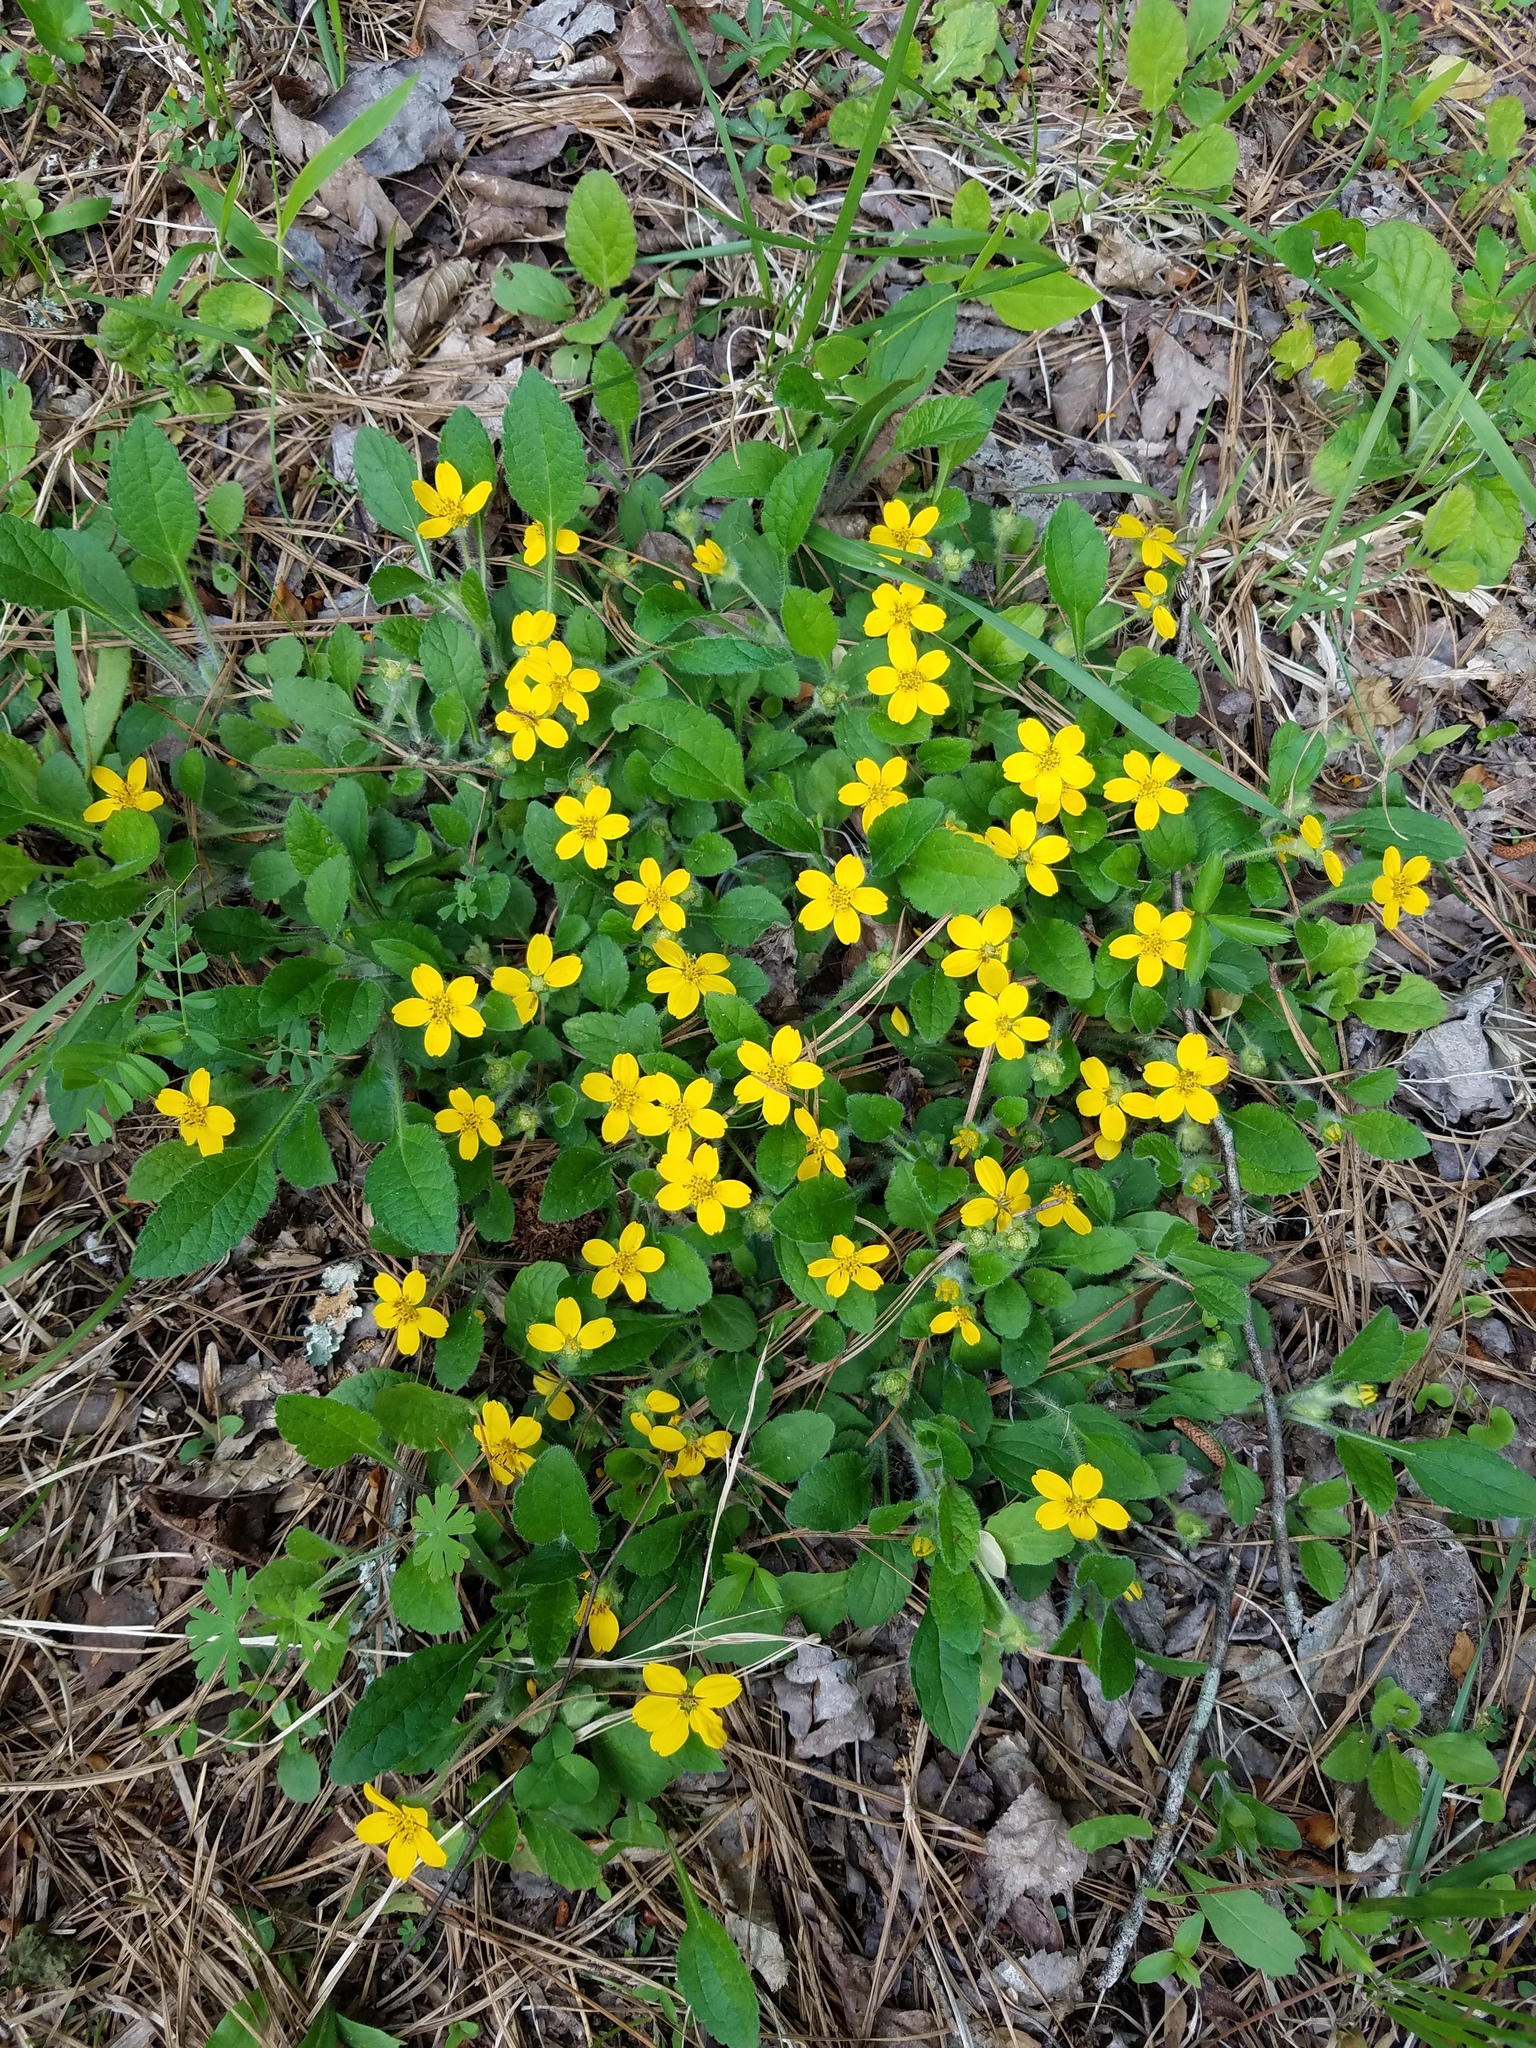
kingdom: Plantae
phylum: Tracheophyta
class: Magnoliopsida
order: Asterales
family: Asteraceae
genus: Chrysogonum
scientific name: Chrysogonum virginianum
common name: Golden-knee
